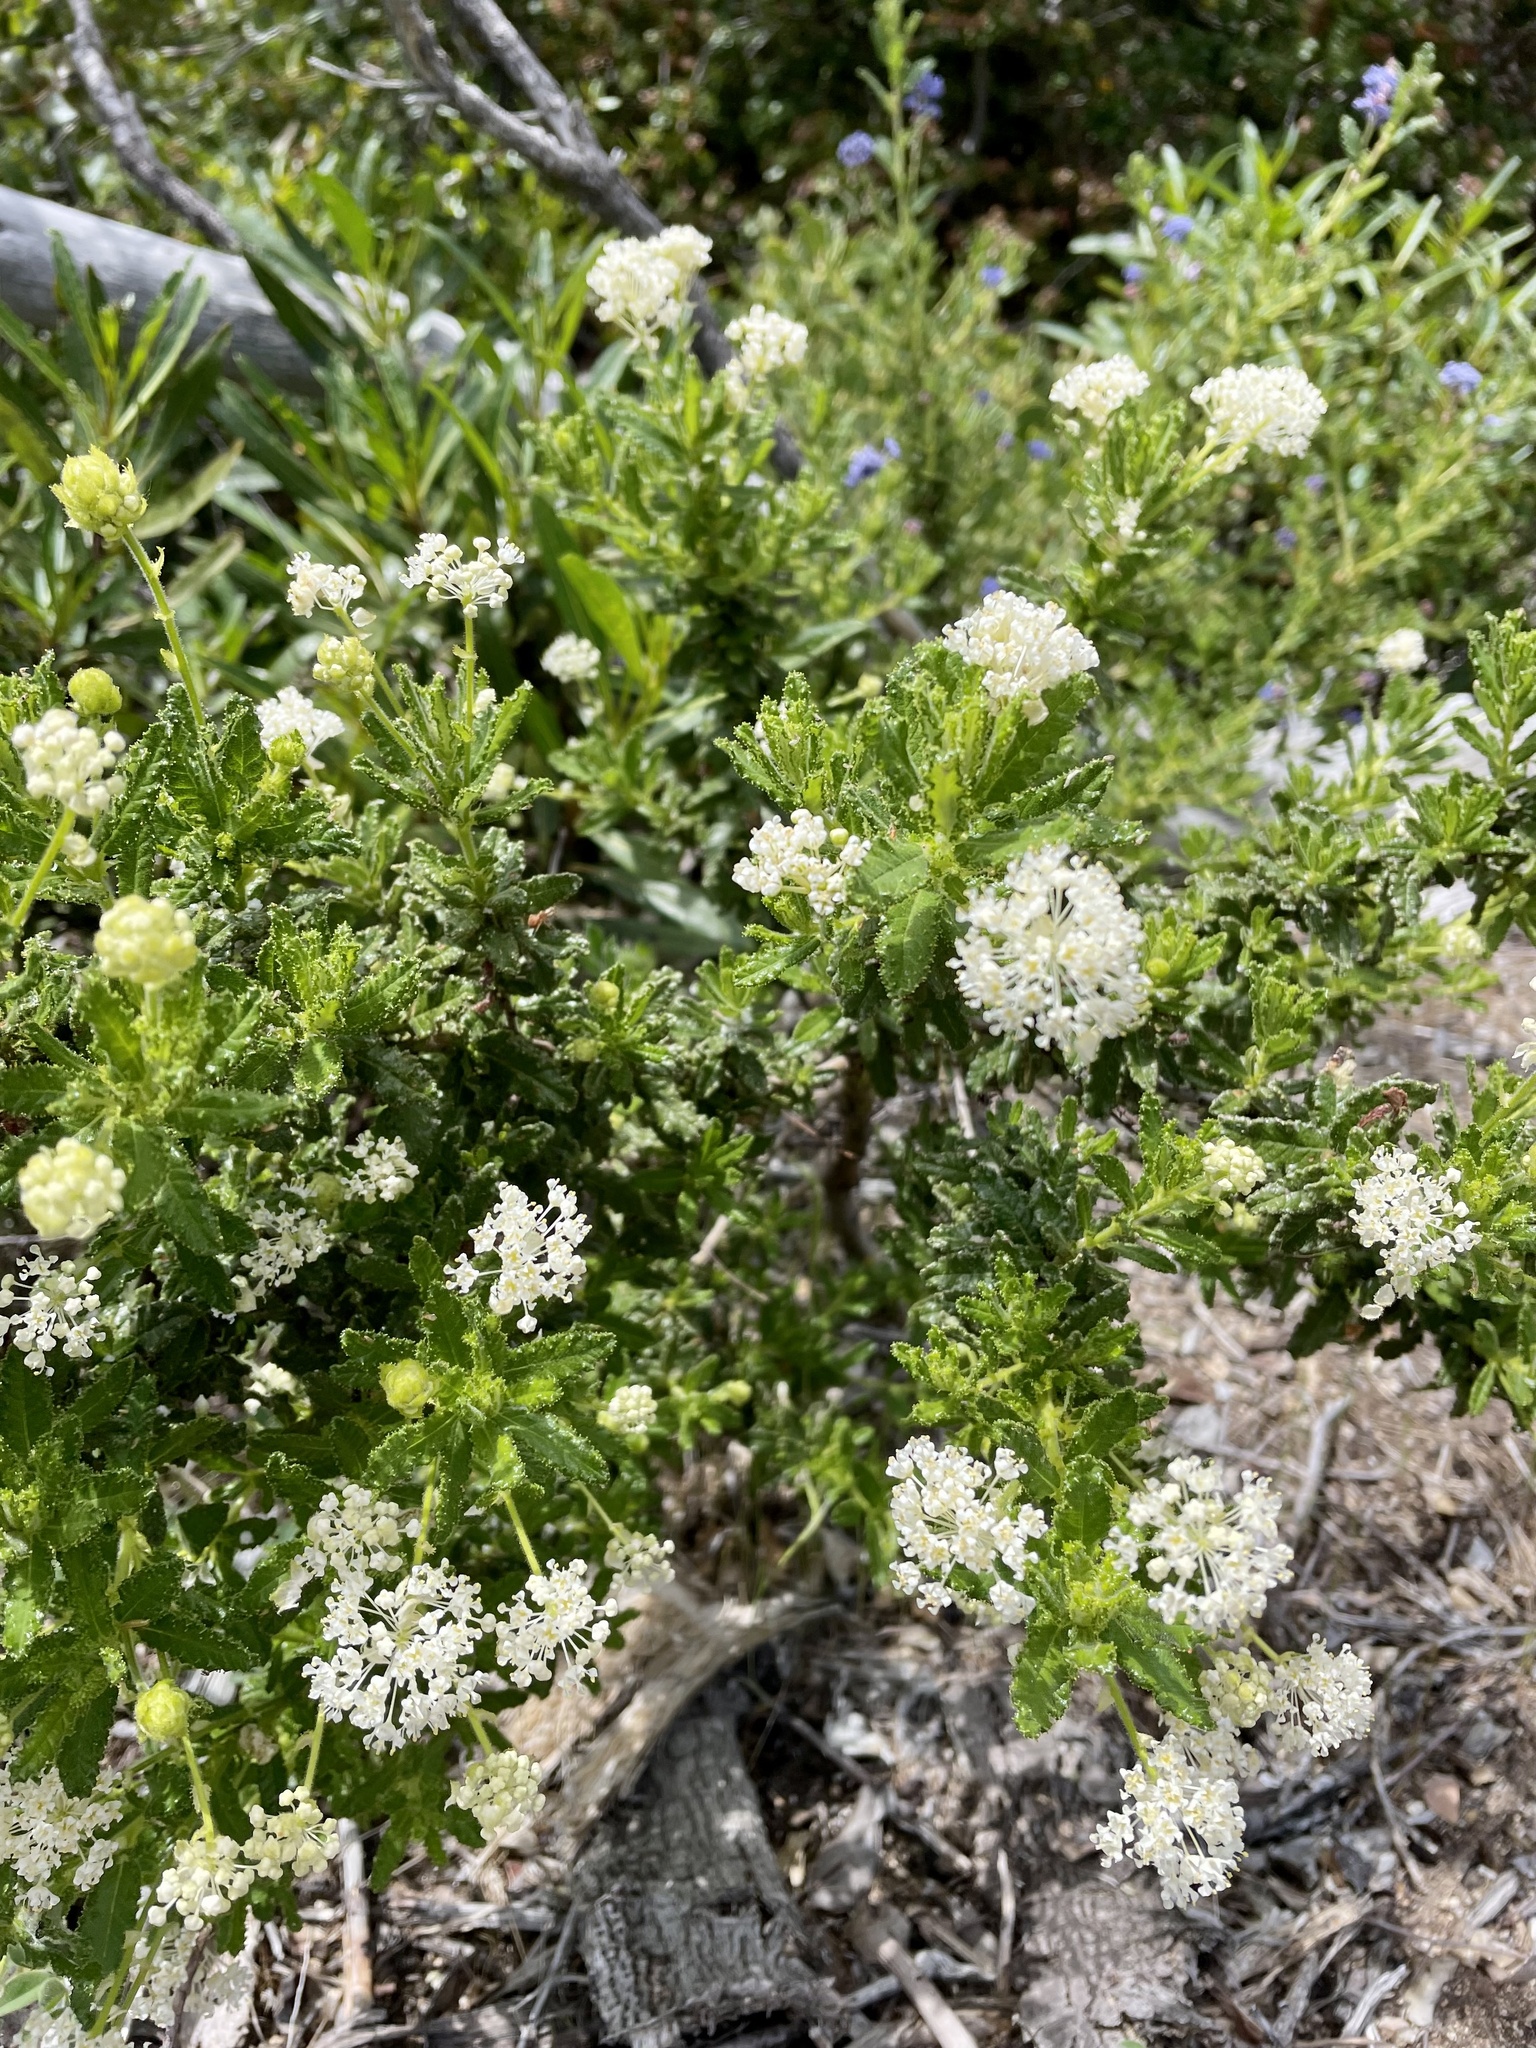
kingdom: Plantae
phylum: Tracheophyta
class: Magnoliopsida
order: Rosales
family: Rhamnaceae
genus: Ceanothus
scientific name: Ceanothus foliosus
